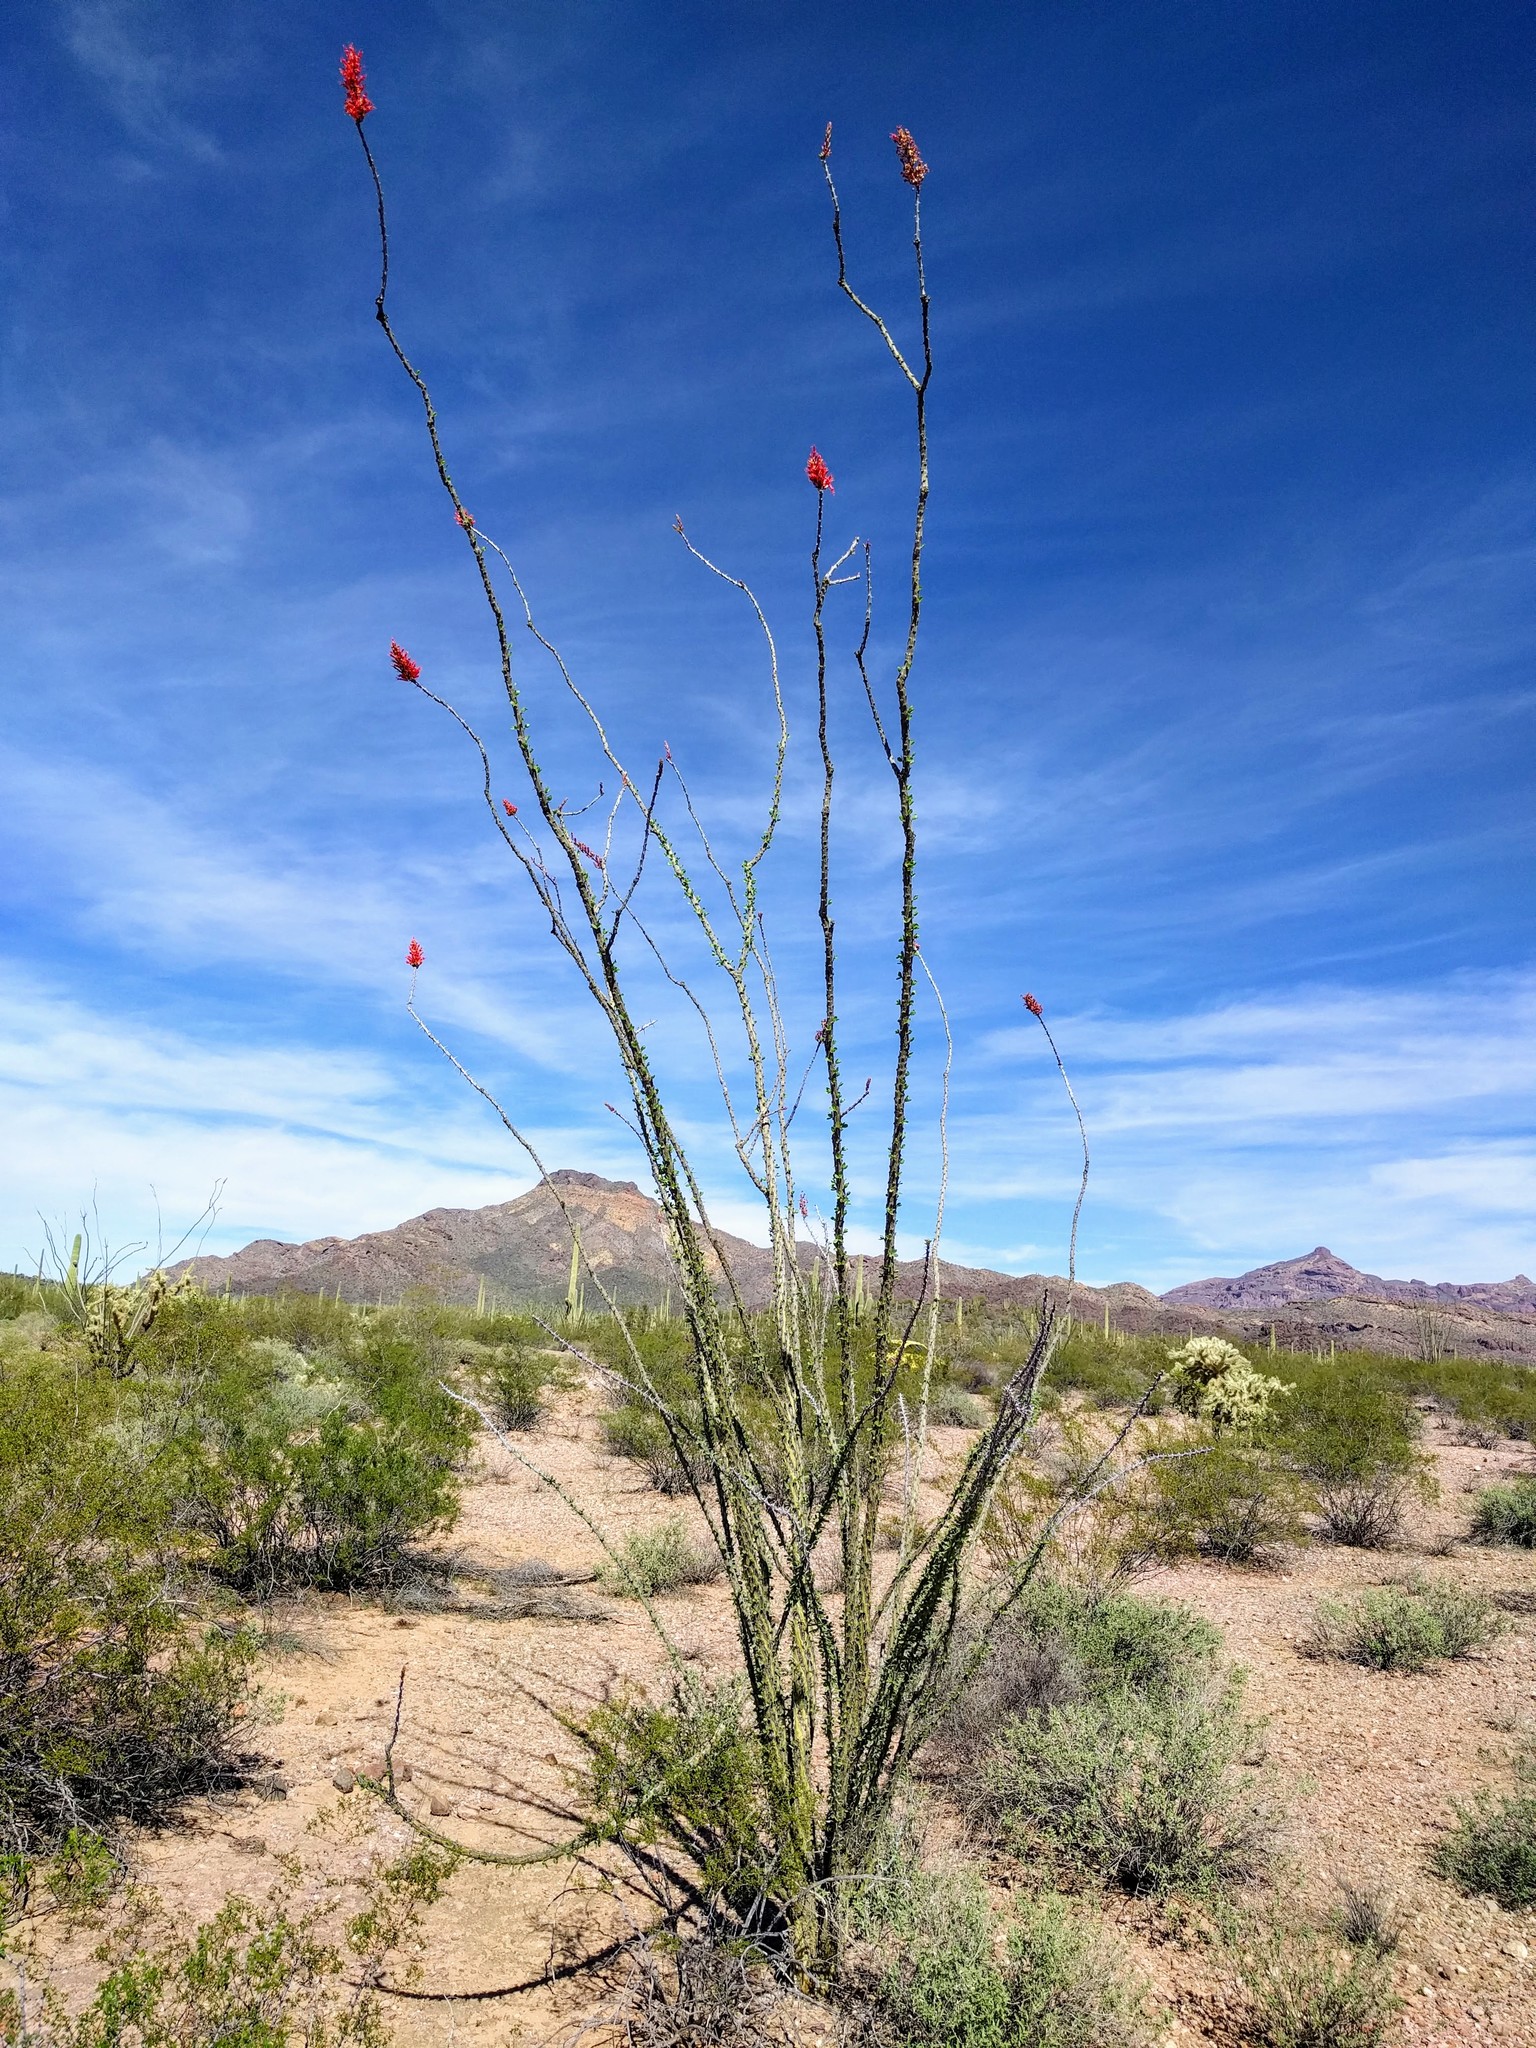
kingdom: Plantae
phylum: Tracheophyta
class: Magnoliopsida
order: Ericales
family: Fouquieriaceae
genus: Fouquieria
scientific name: Fouquieria splendens
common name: Vine-cactus
